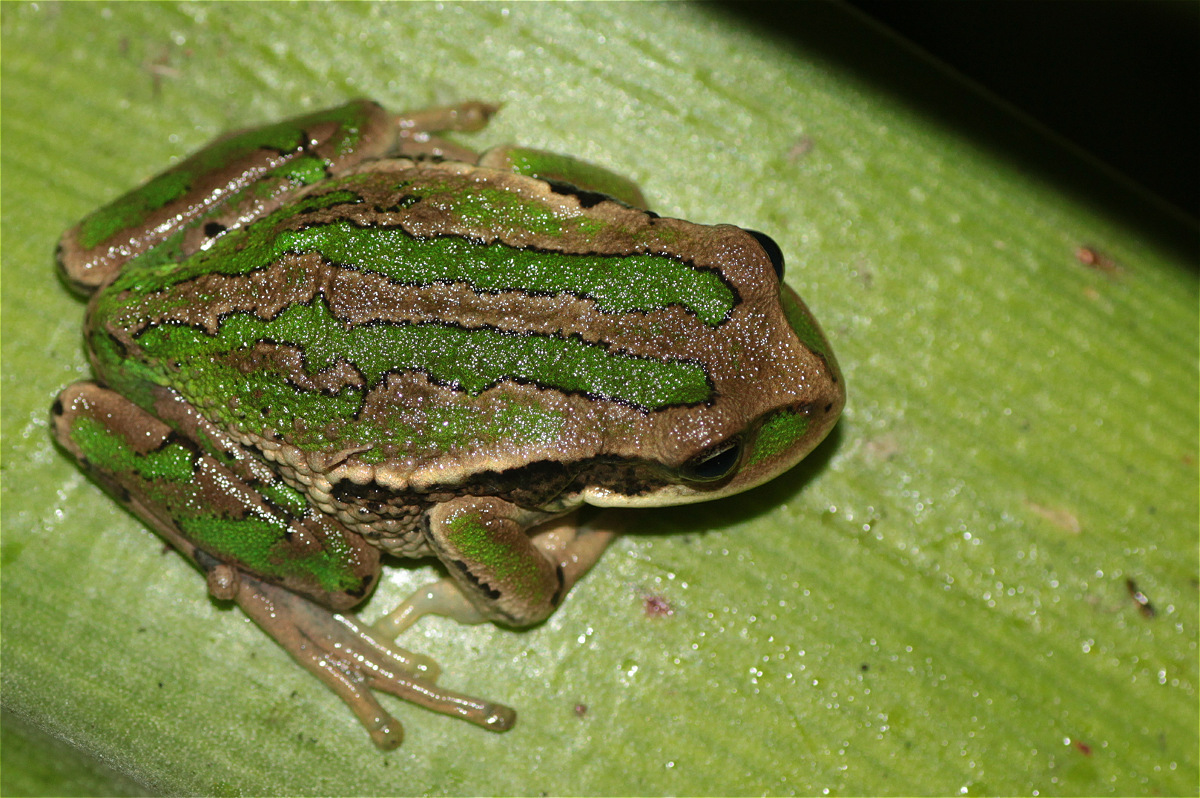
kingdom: Animalia
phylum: Chordata
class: Amphibia
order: Anura
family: Hemiphractidae
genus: Gastrotheca
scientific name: Gastrotheca cuencana
